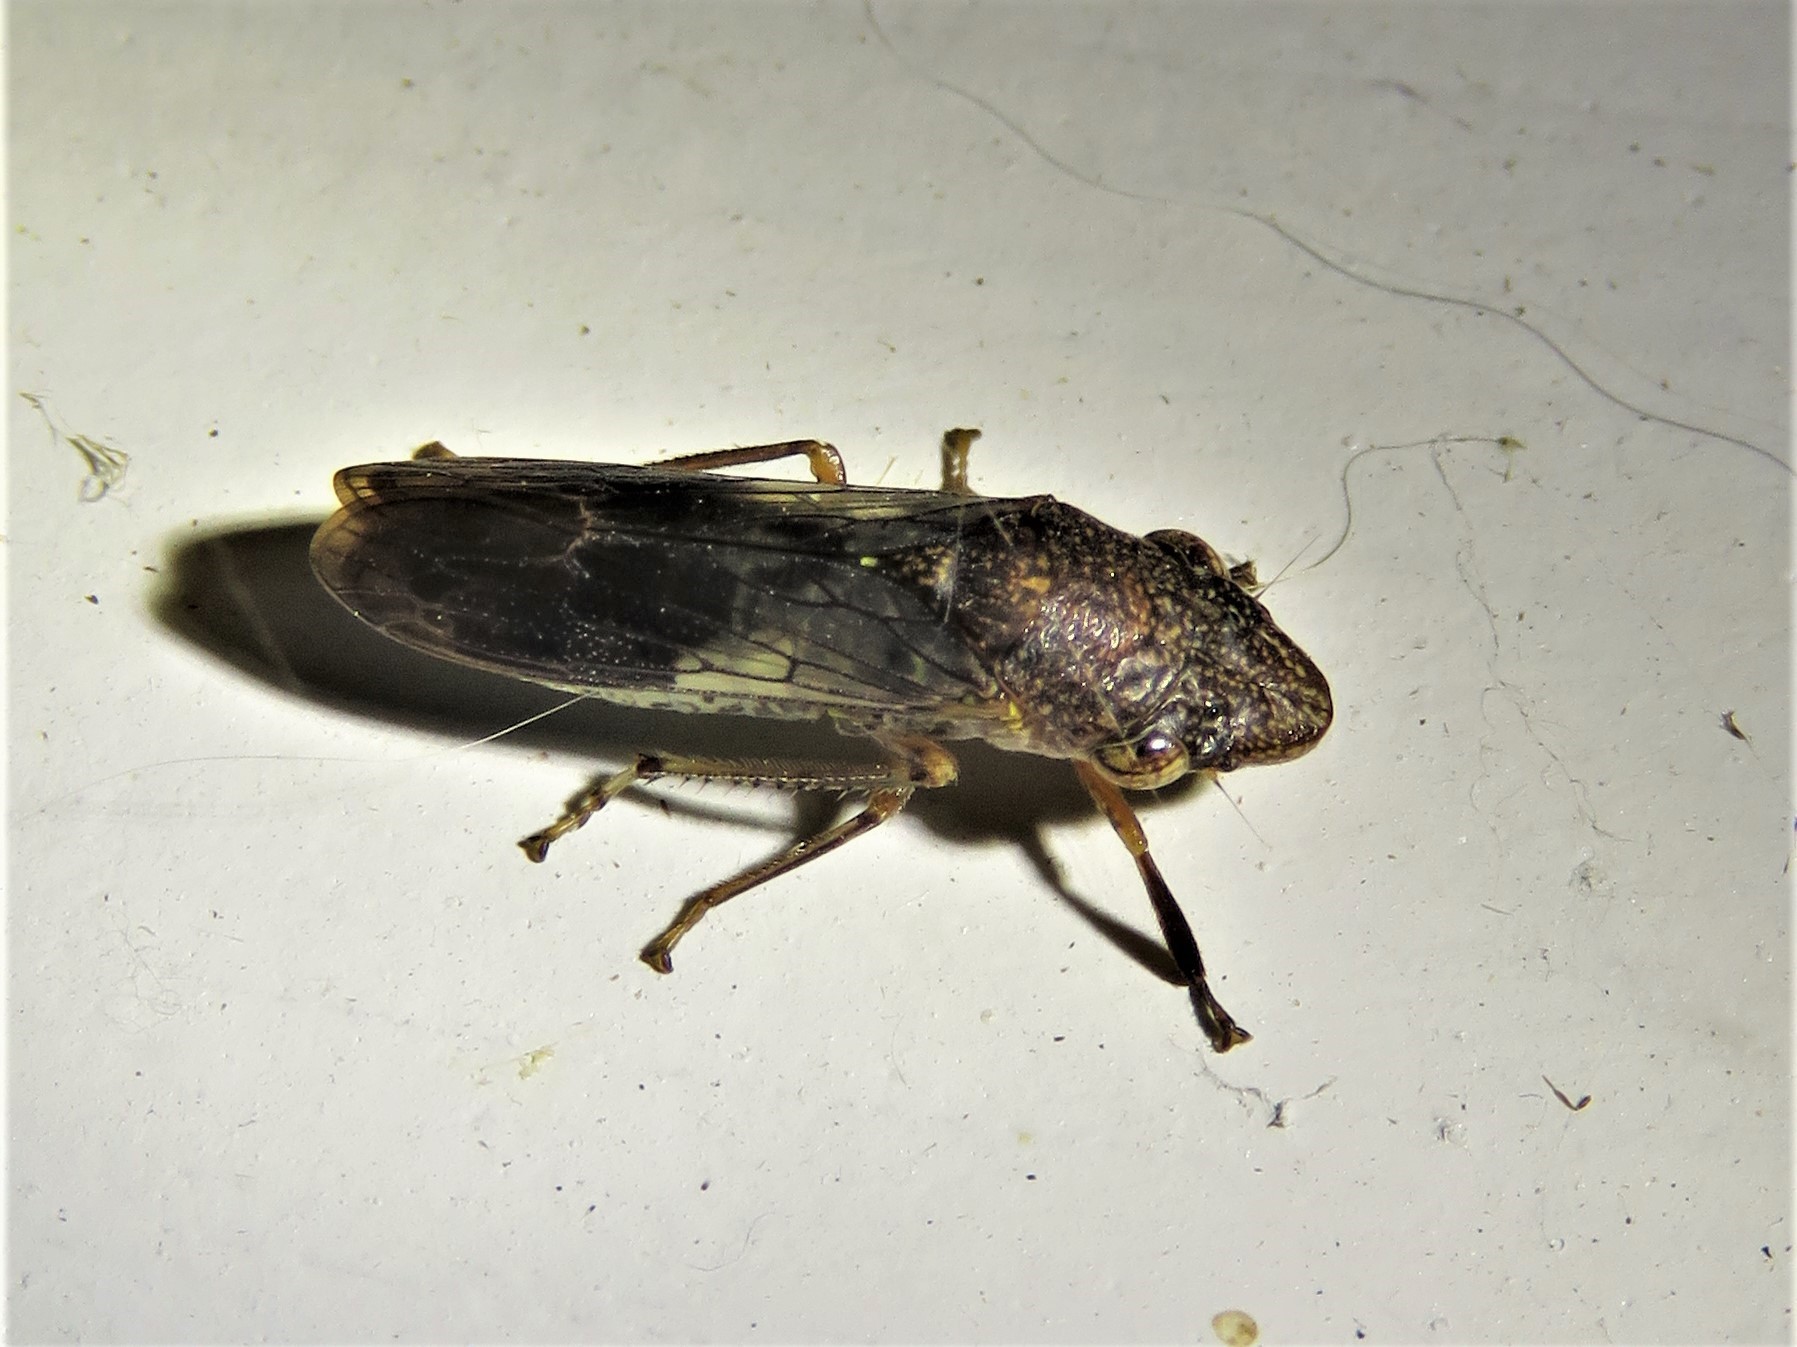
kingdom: Animalia
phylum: Arthropoda
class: Insecta
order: Hemiptera
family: Cicadellidae
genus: Homalodisca
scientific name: Homalodisca vitripennis
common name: Glassy-winged sharpshooter
